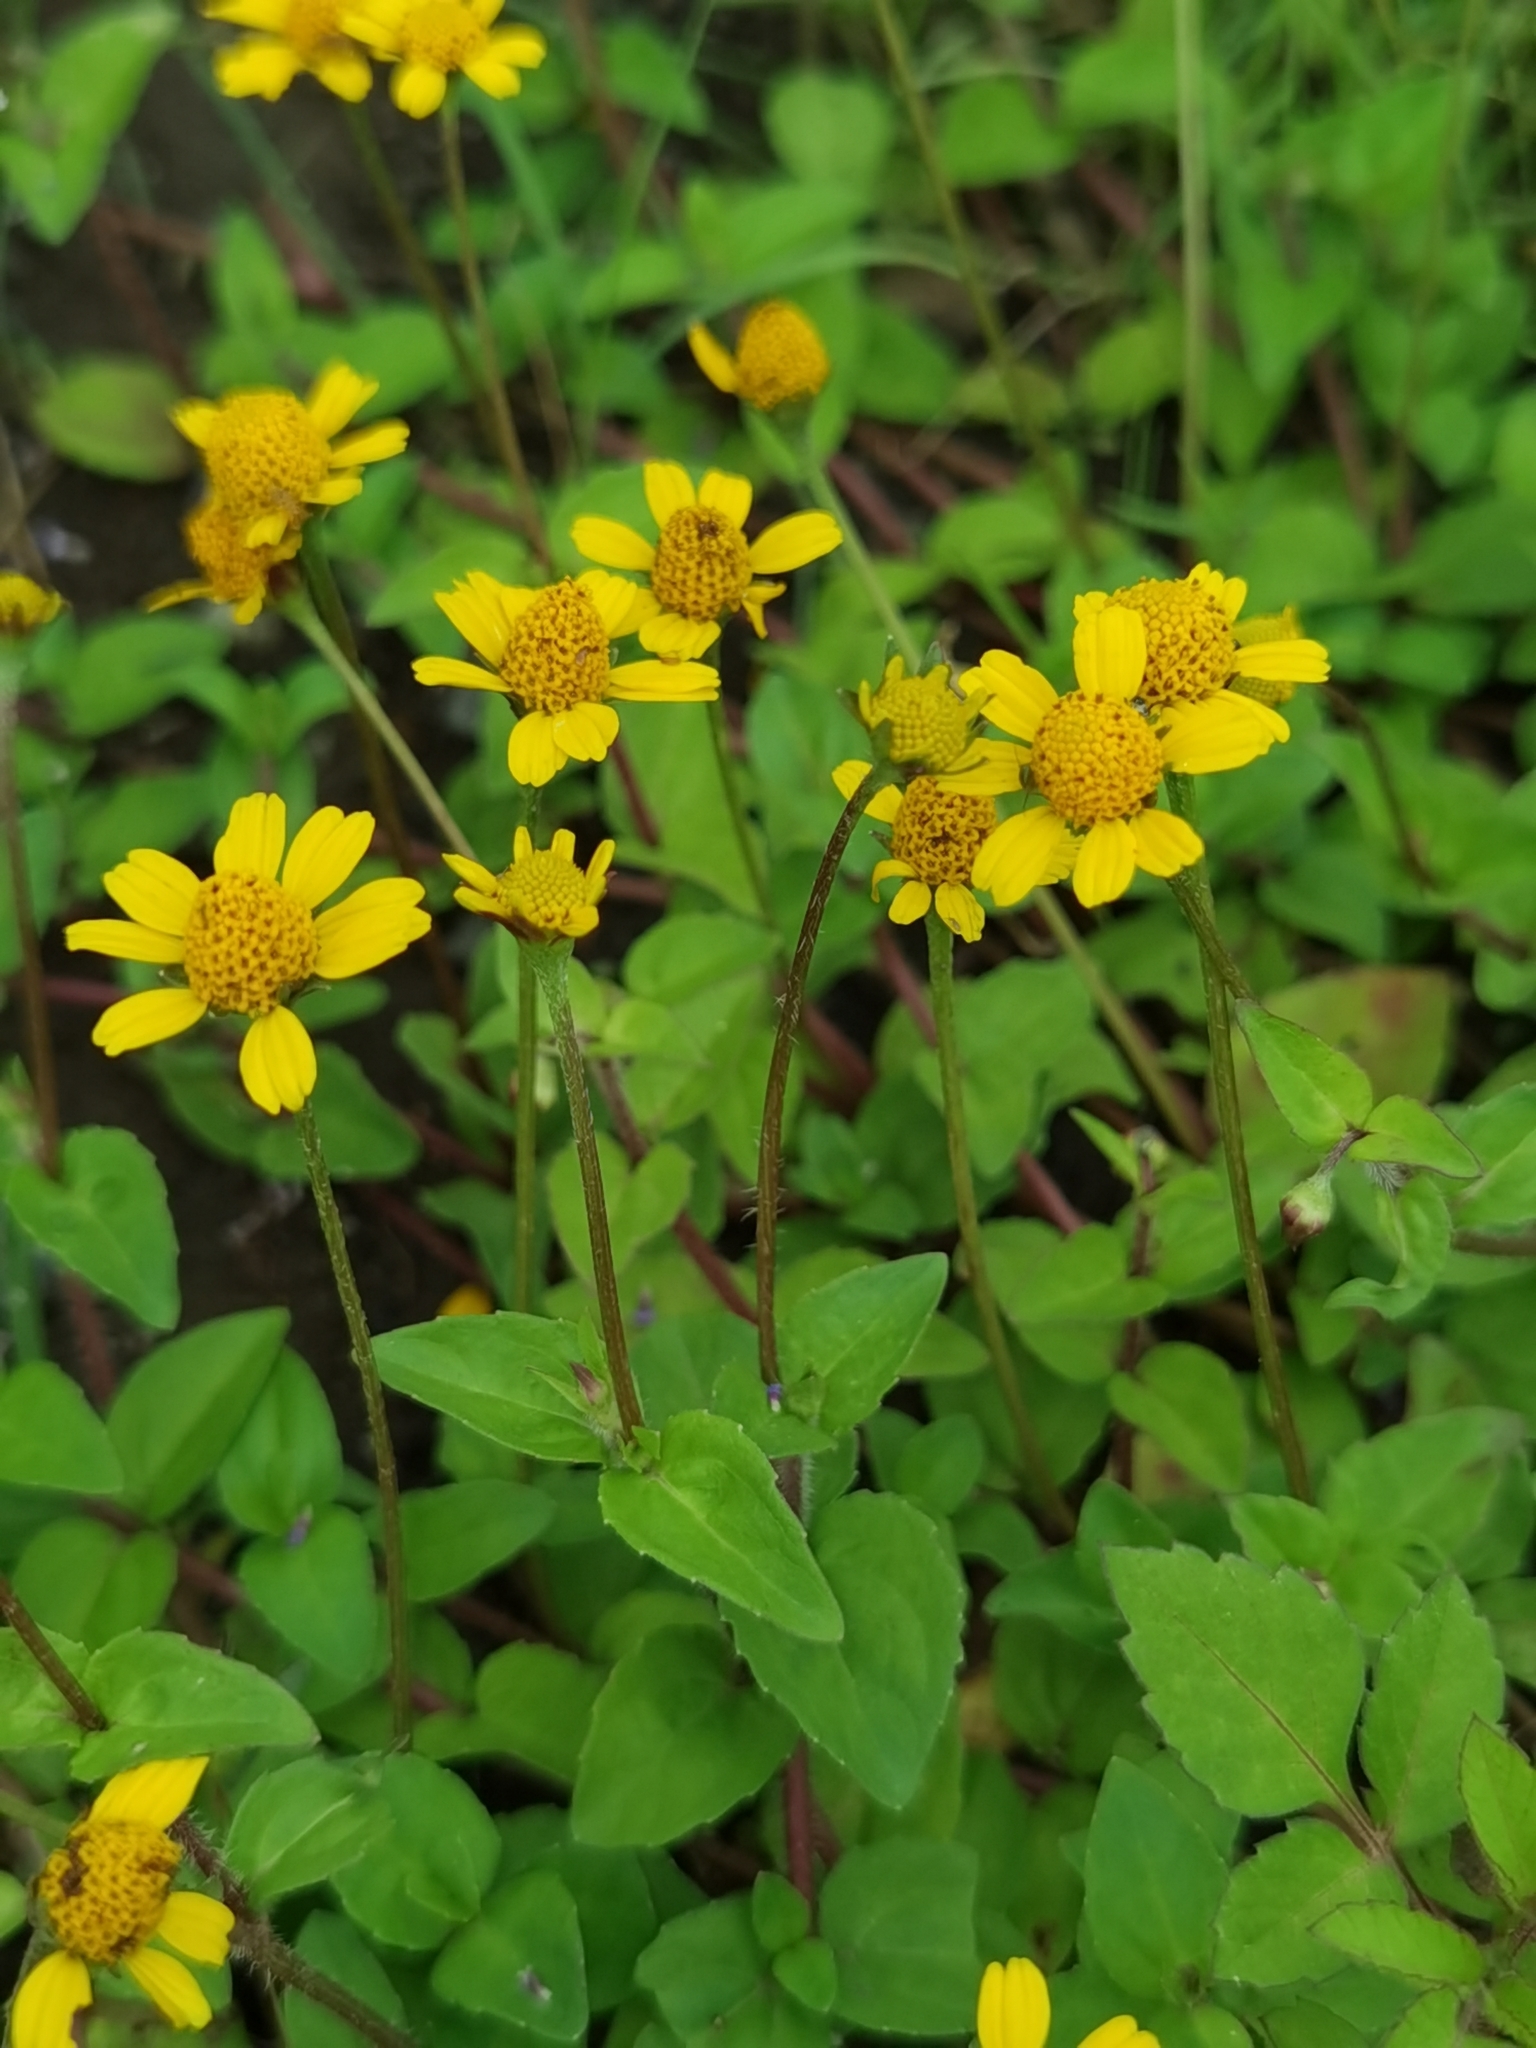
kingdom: Plantae
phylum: Tracheophyta
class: Magnoliopsida
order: Asterales
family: Asteraceae
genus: Acmella
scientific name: Acmella repens
